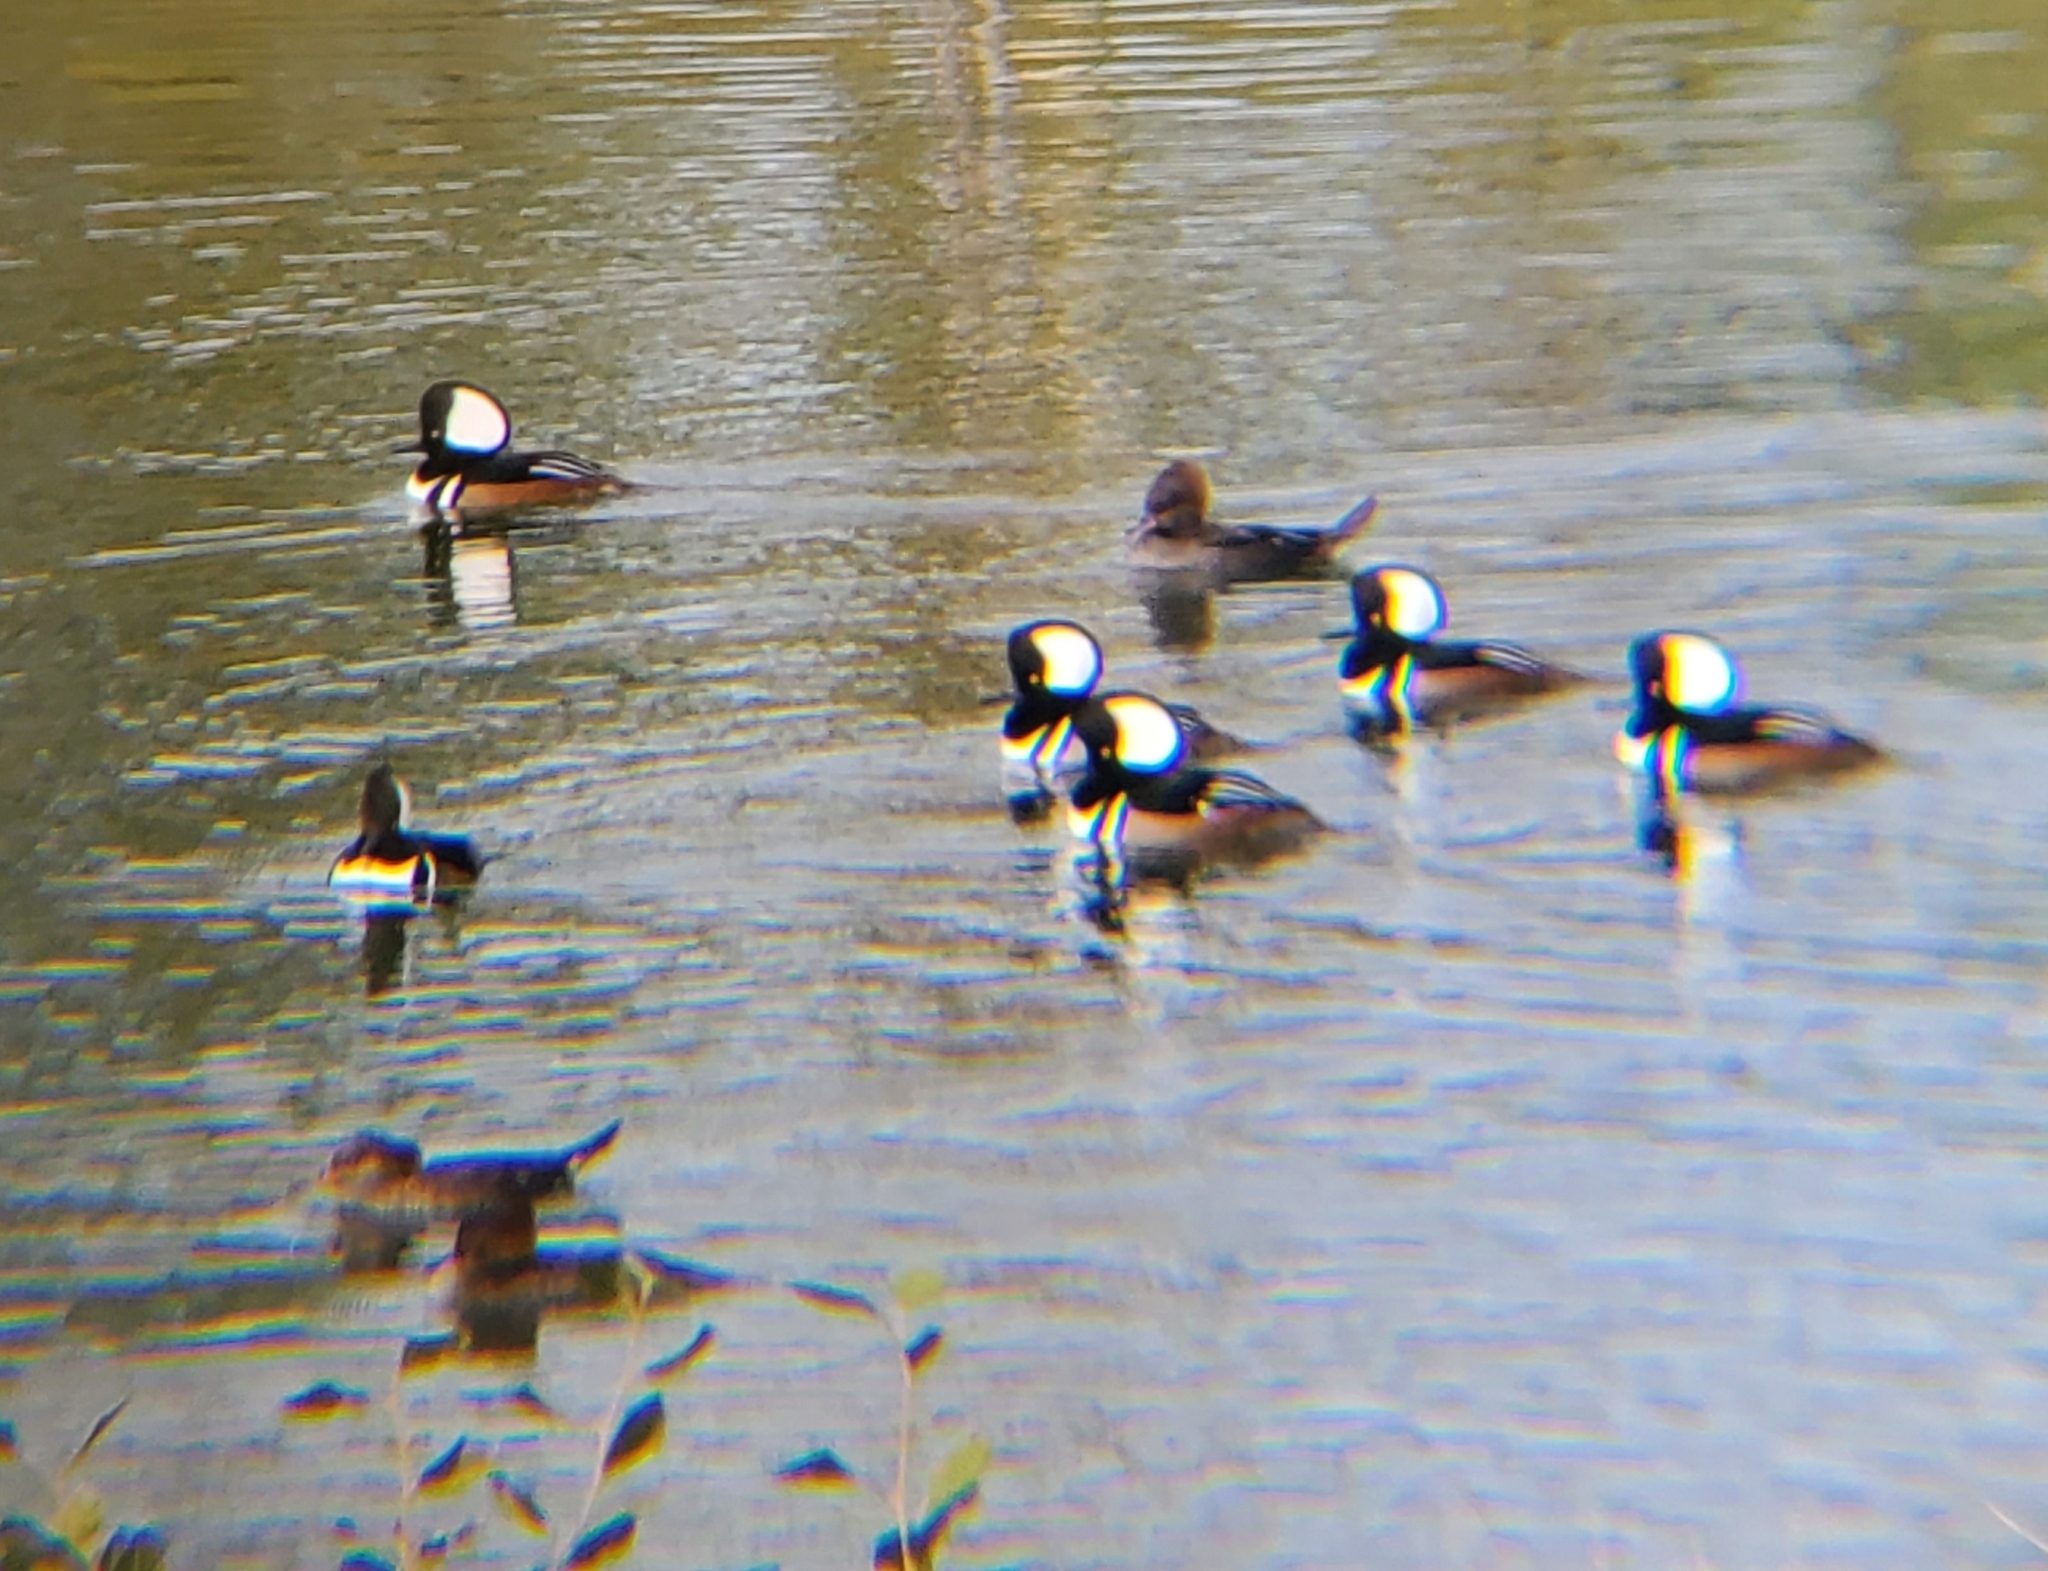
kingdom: Animalia
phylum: Chordata
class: Aves
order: Anseriformes
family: Anatidae
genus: Lophodytes
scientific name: Lophodytes cucullatus
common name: Hooded merganser
